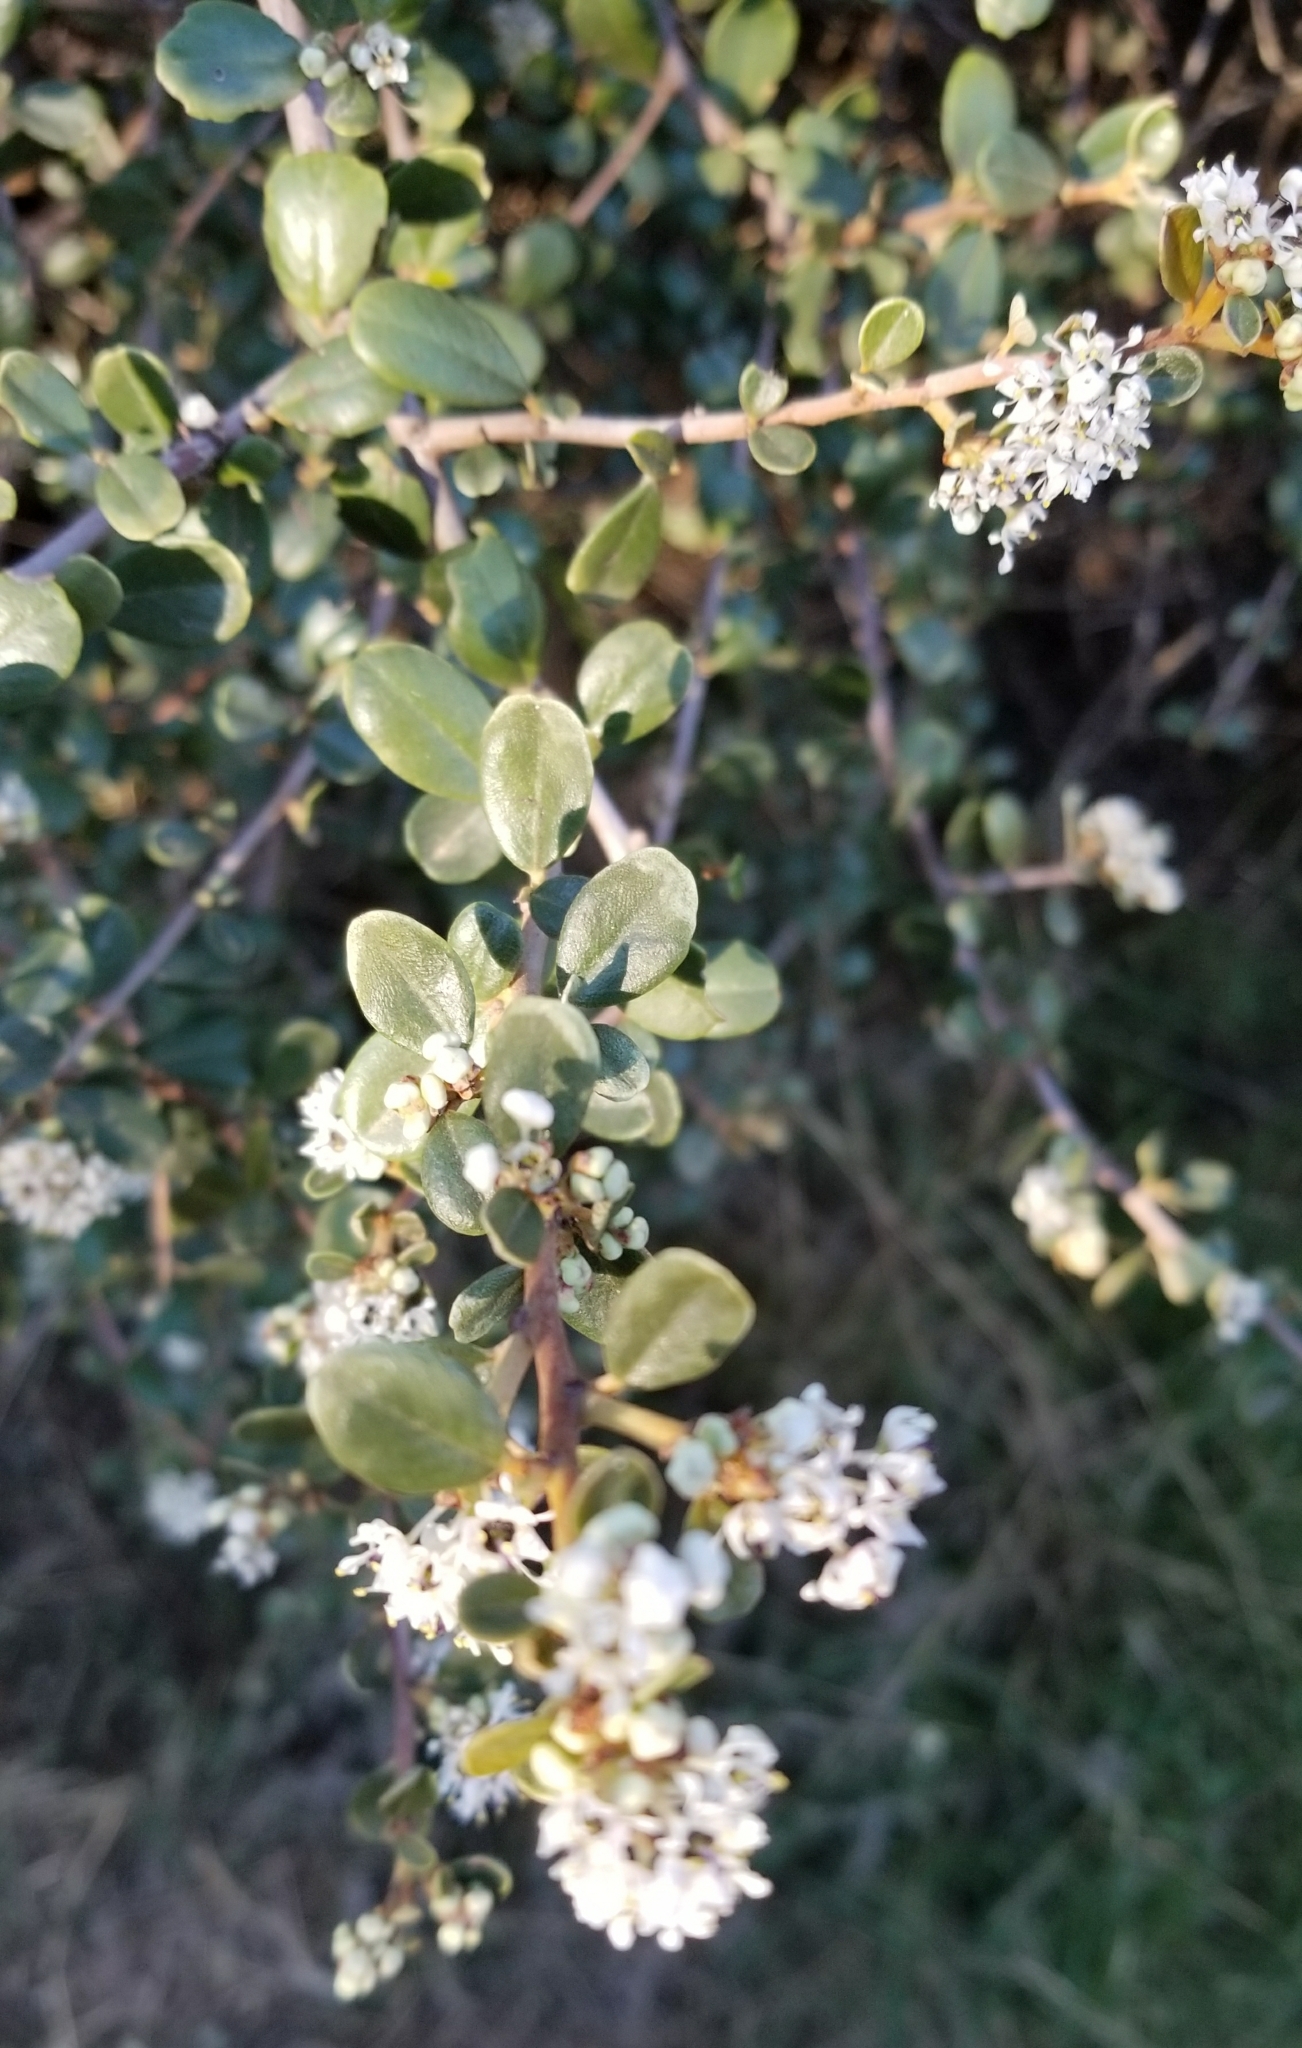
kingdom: Plantae
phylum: Tracheophyta
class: Magnoliopsida
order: Rosales
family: Rhamnaceae
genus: Ceanothus
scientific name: Ceanothus megacarpus
